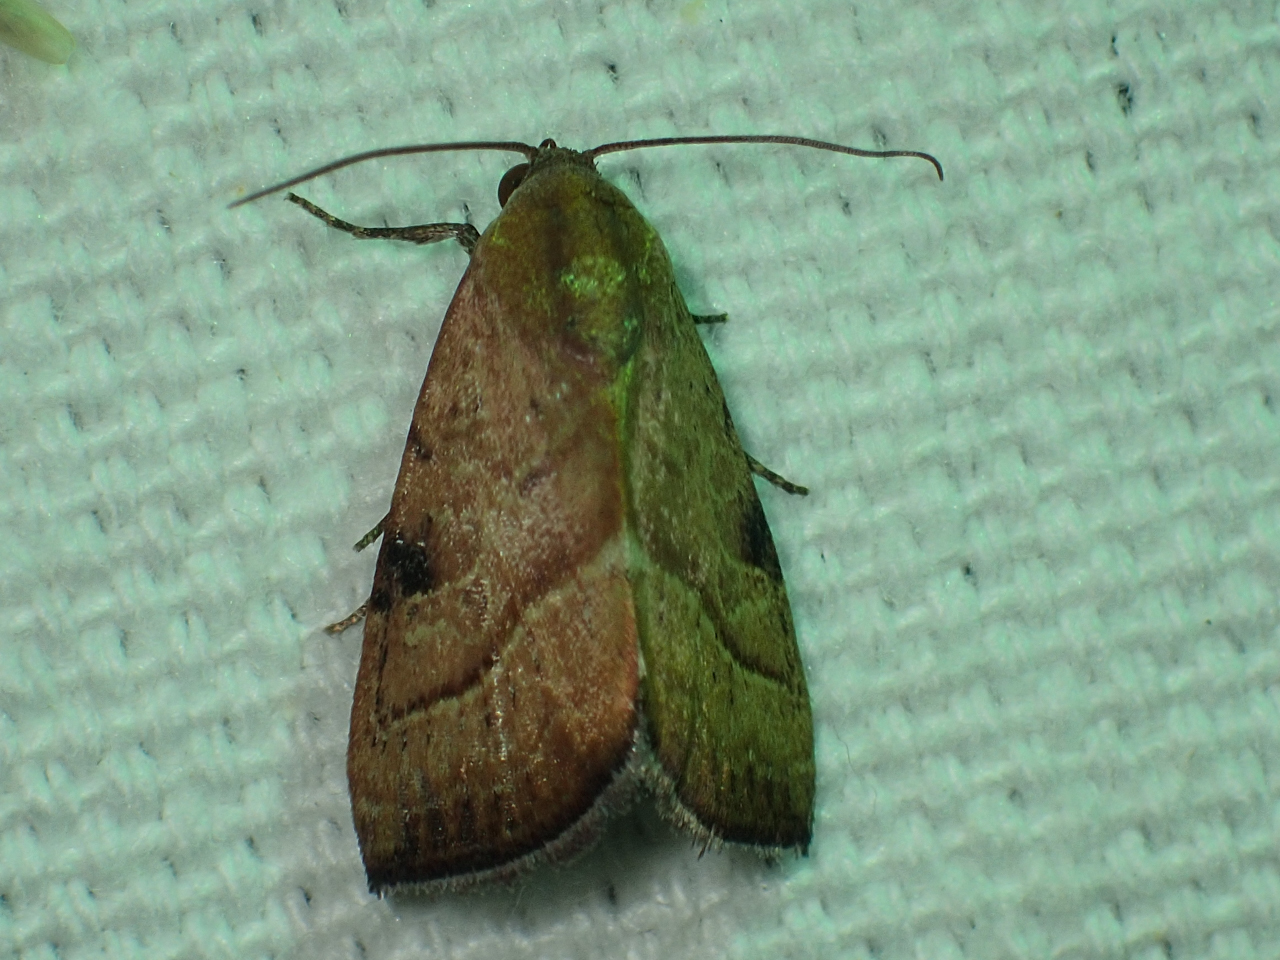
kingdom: Animalia
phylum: Arthropoda
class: Insecta
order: Lepidoptera
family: Noctuidae
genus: Galgula
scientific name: Galgula partita
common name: Wedgeling
